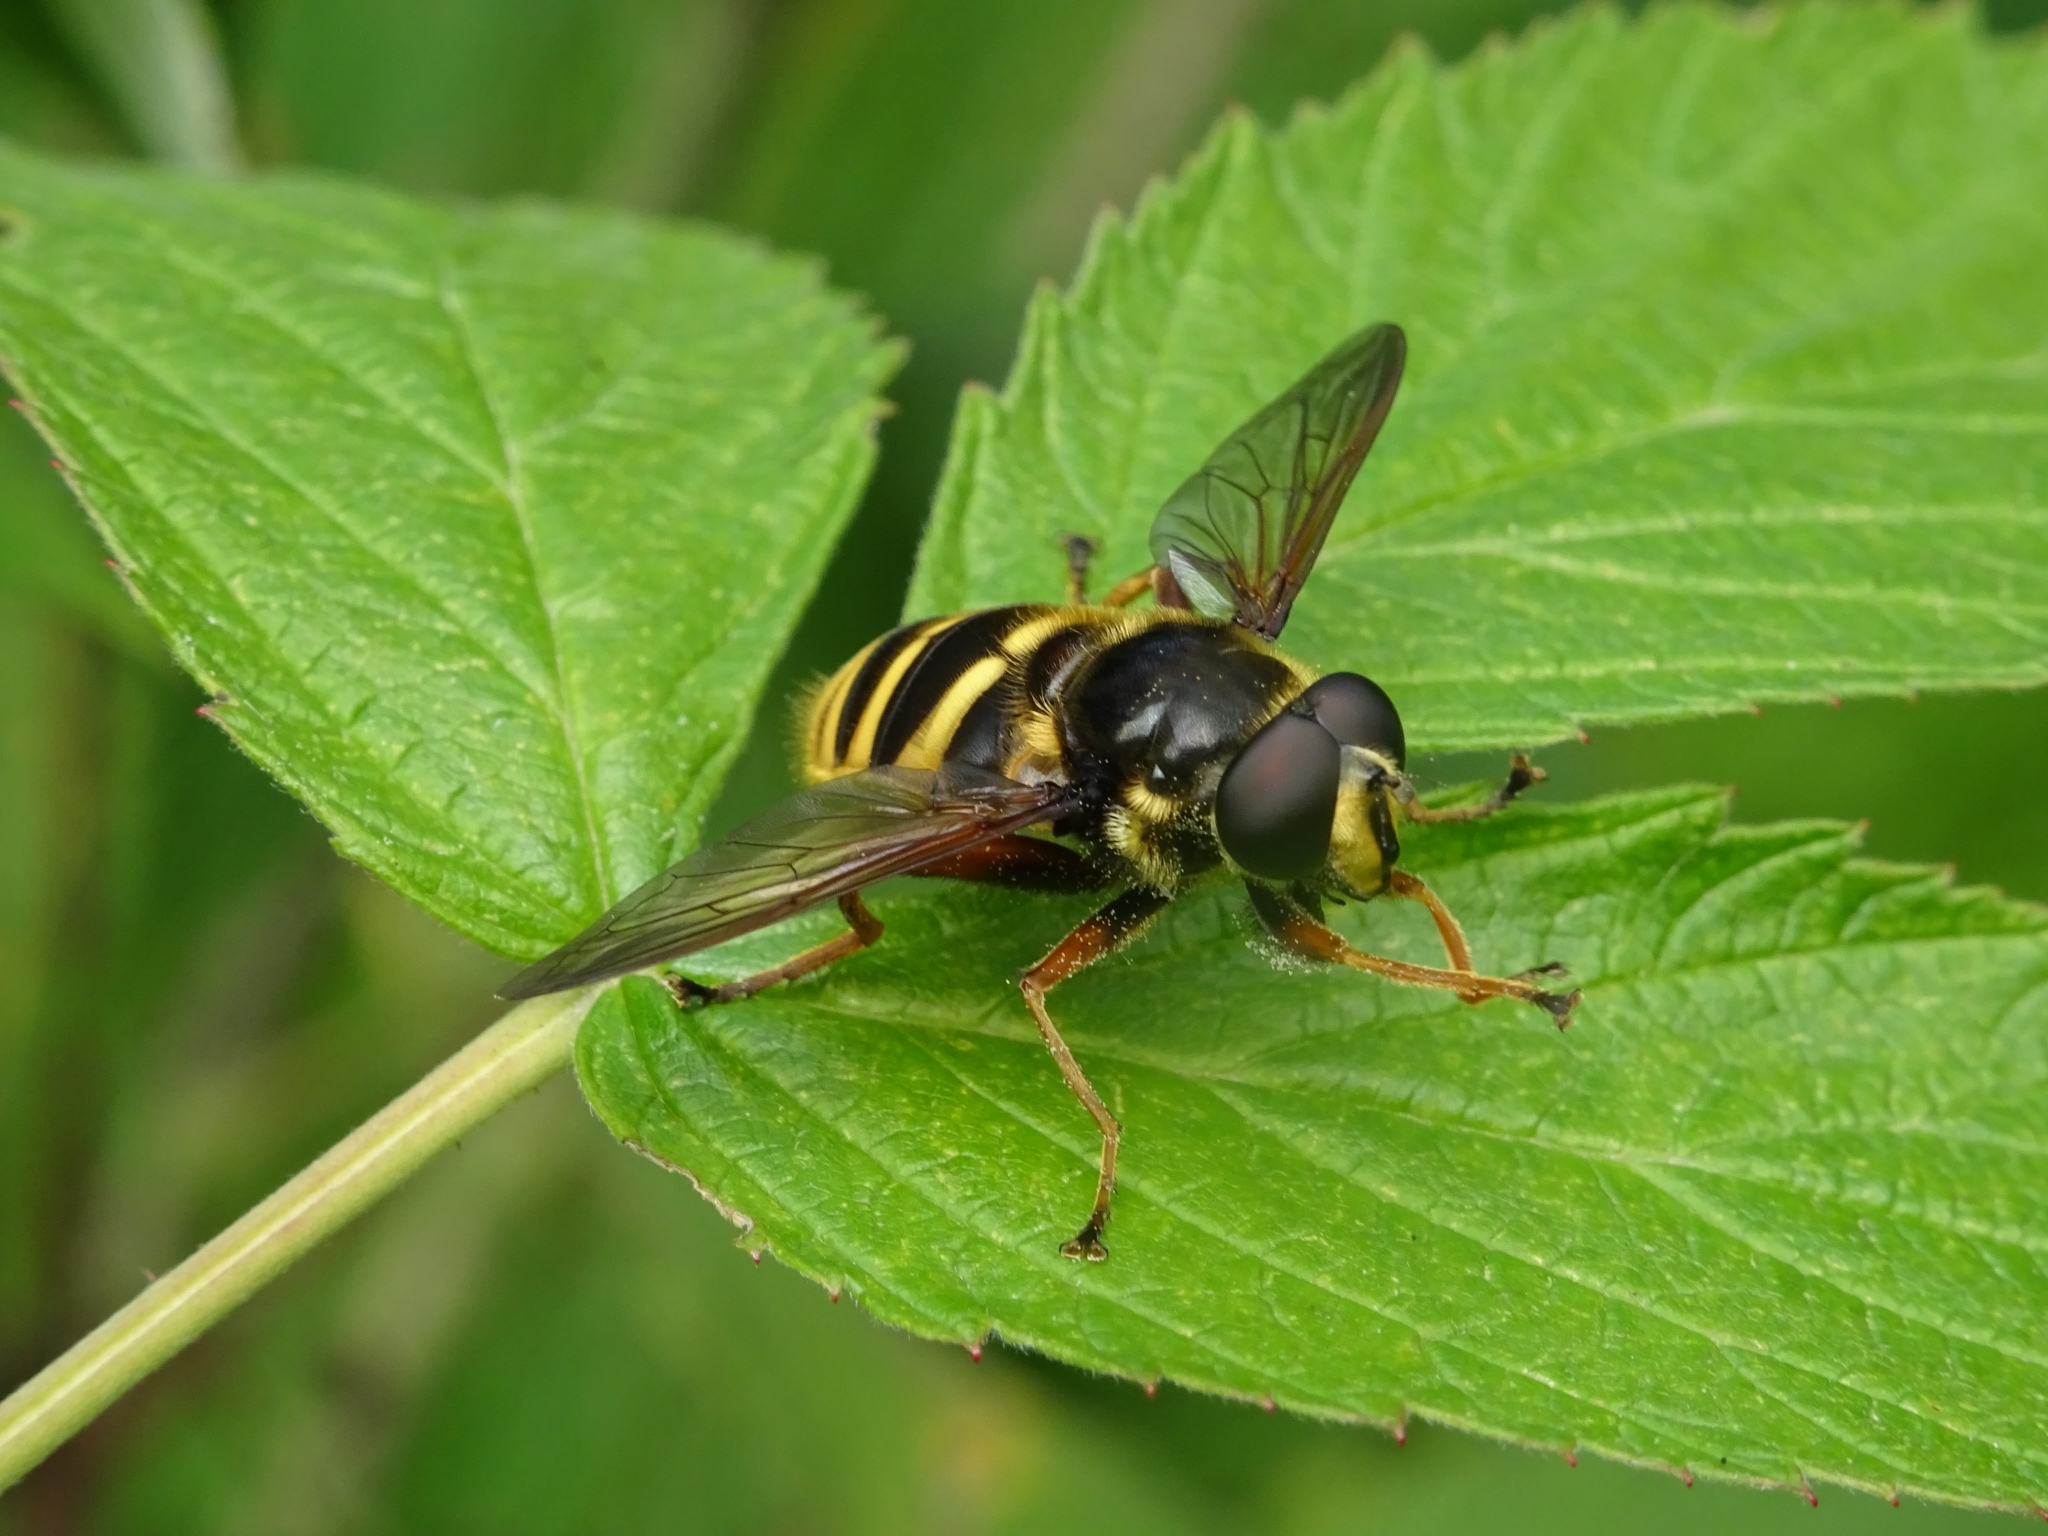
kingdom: Animalia
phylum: Arthropoda
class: Insecta
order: Diptera
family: Syrphidae
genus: Sericomyia
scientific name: Sericomyia silentis
